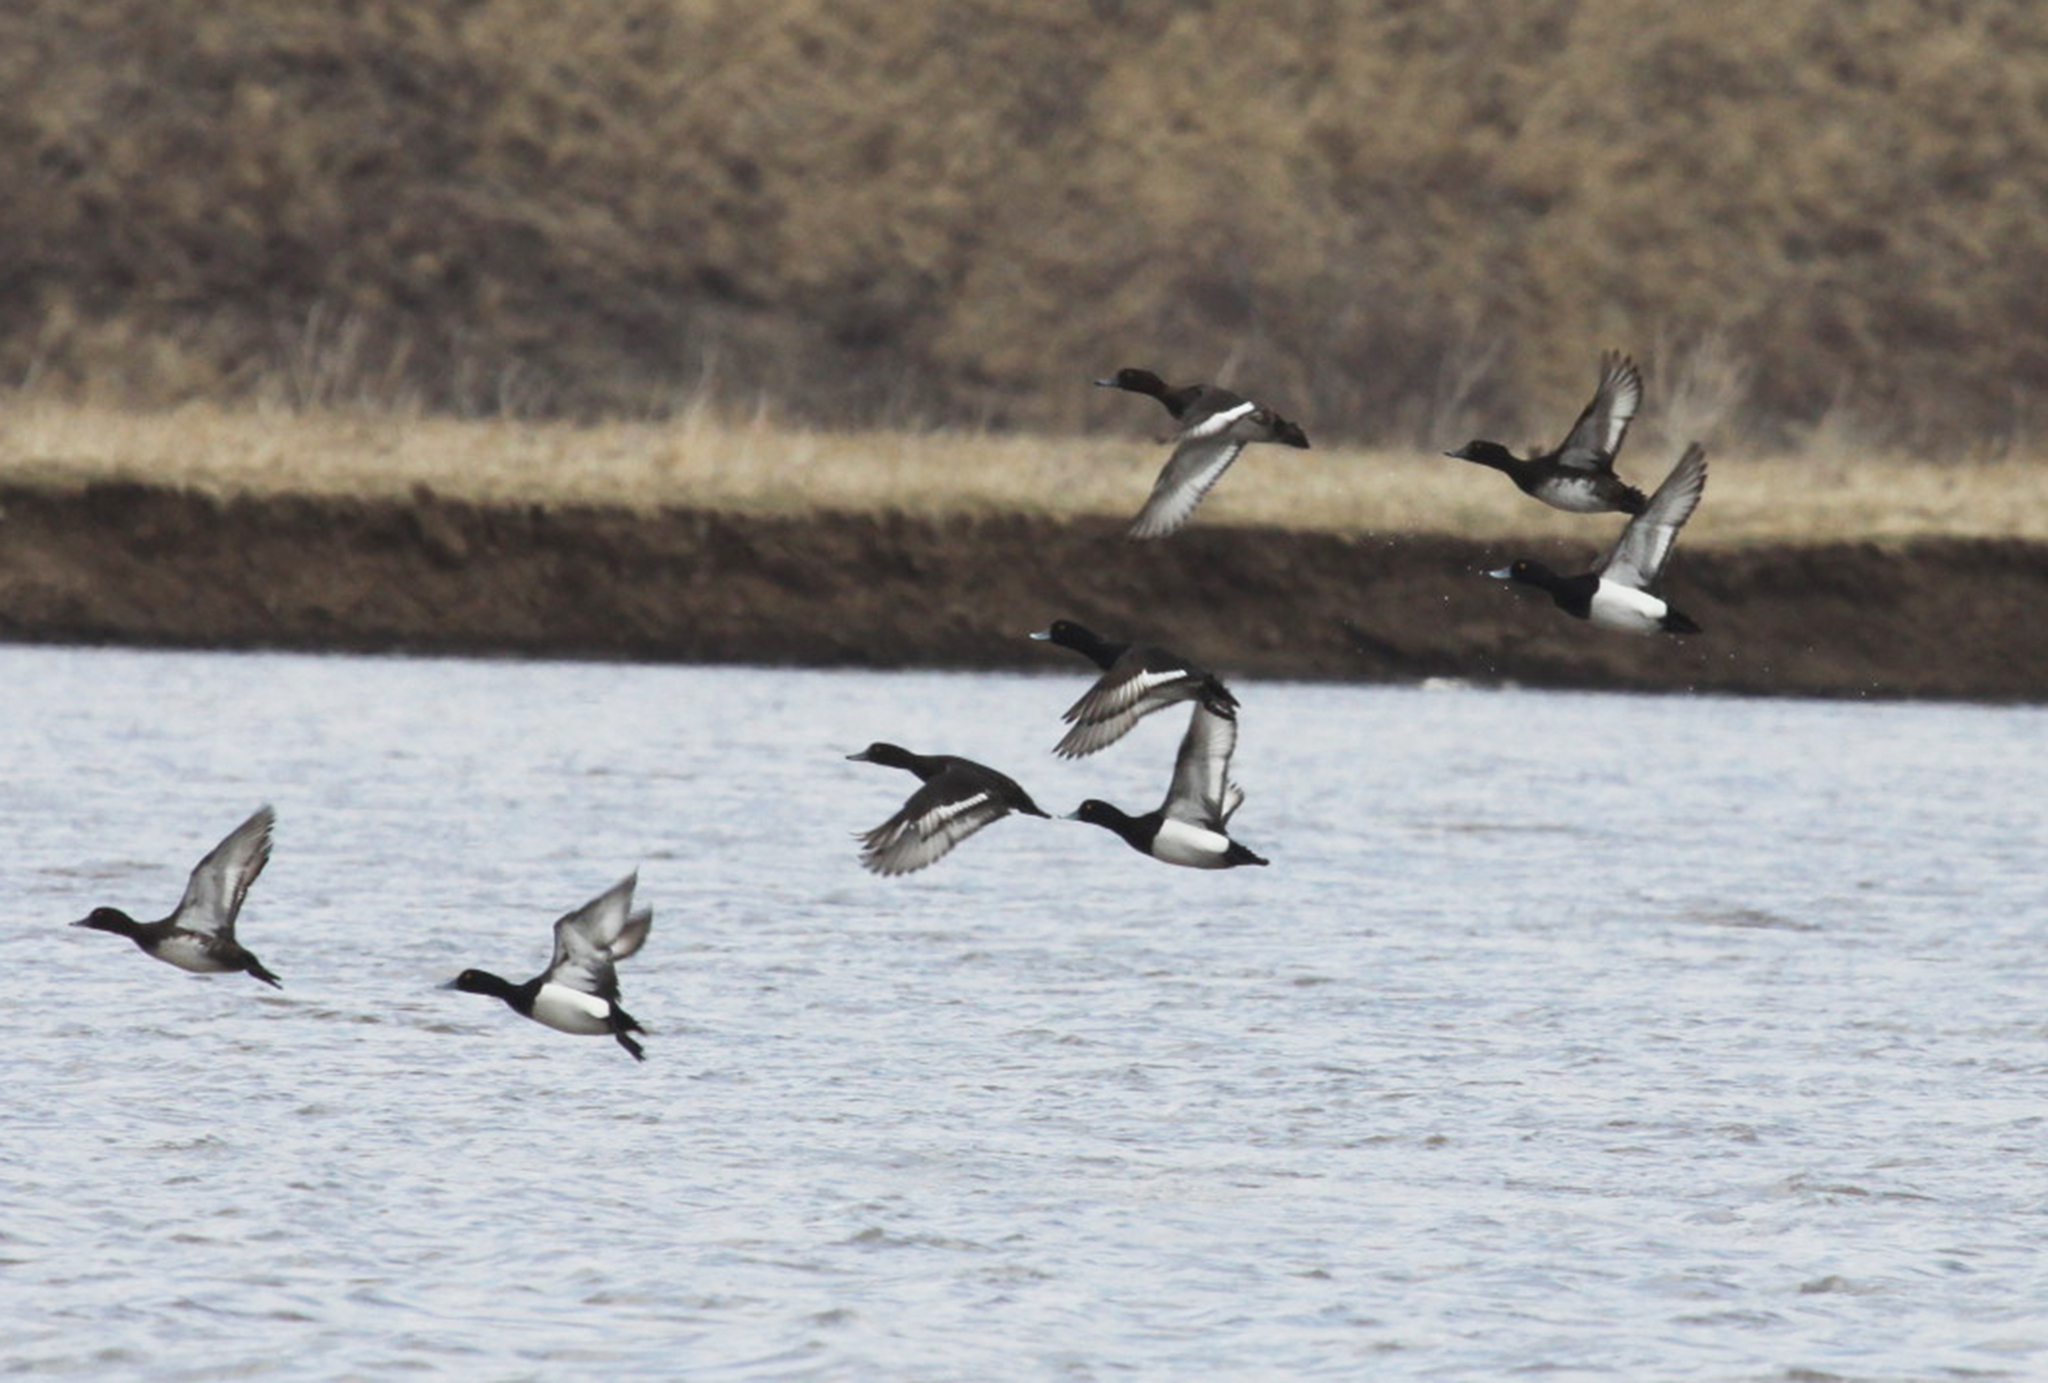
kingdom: Animalia
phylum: Chordata
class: Aves
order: Anseriformes
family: Anatidae
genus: Aythya
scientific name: Aythya fuligula
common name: Tufted duck
